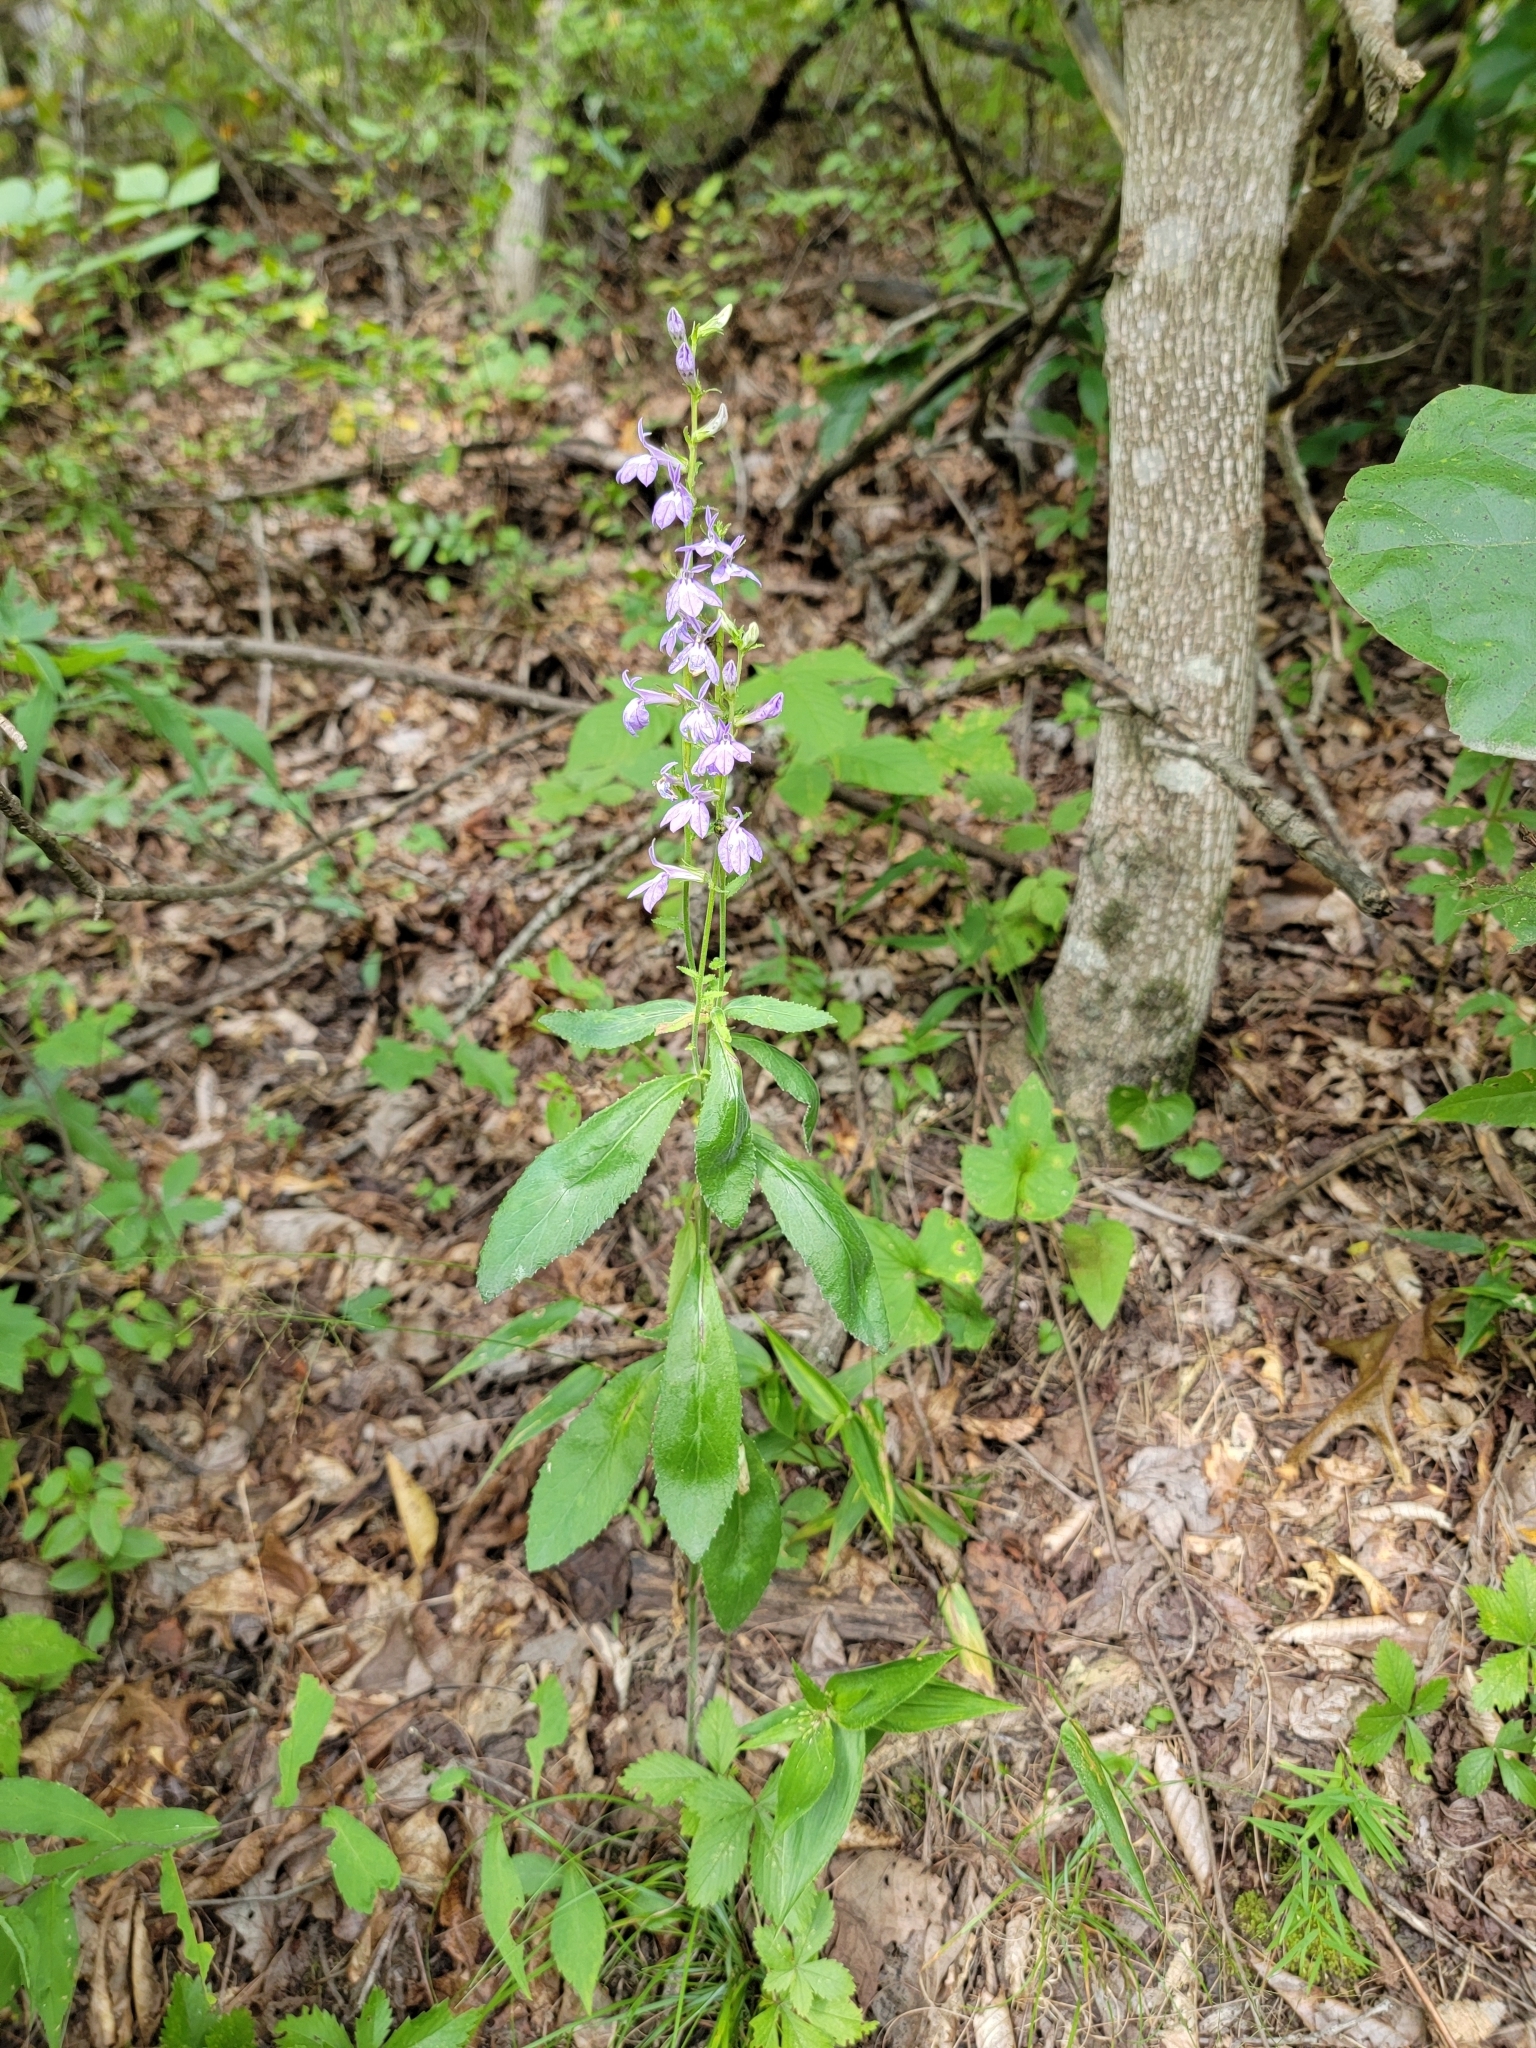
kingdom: Plantae
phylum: Tracheophyta
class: Magnoliopsida
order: Asterales
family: Campanulaceae
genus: Lobelia
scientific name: Lobelia puberula
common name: Purple dewdrop
